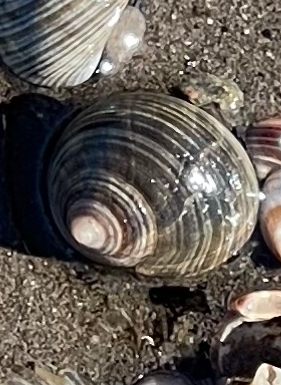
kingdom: Animalia
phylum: Mollusca
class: Gastropoda
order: Littorinimorpha
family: Littorinidae
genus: Littorina
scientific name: Littorina littorea
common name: Common periwinkle
